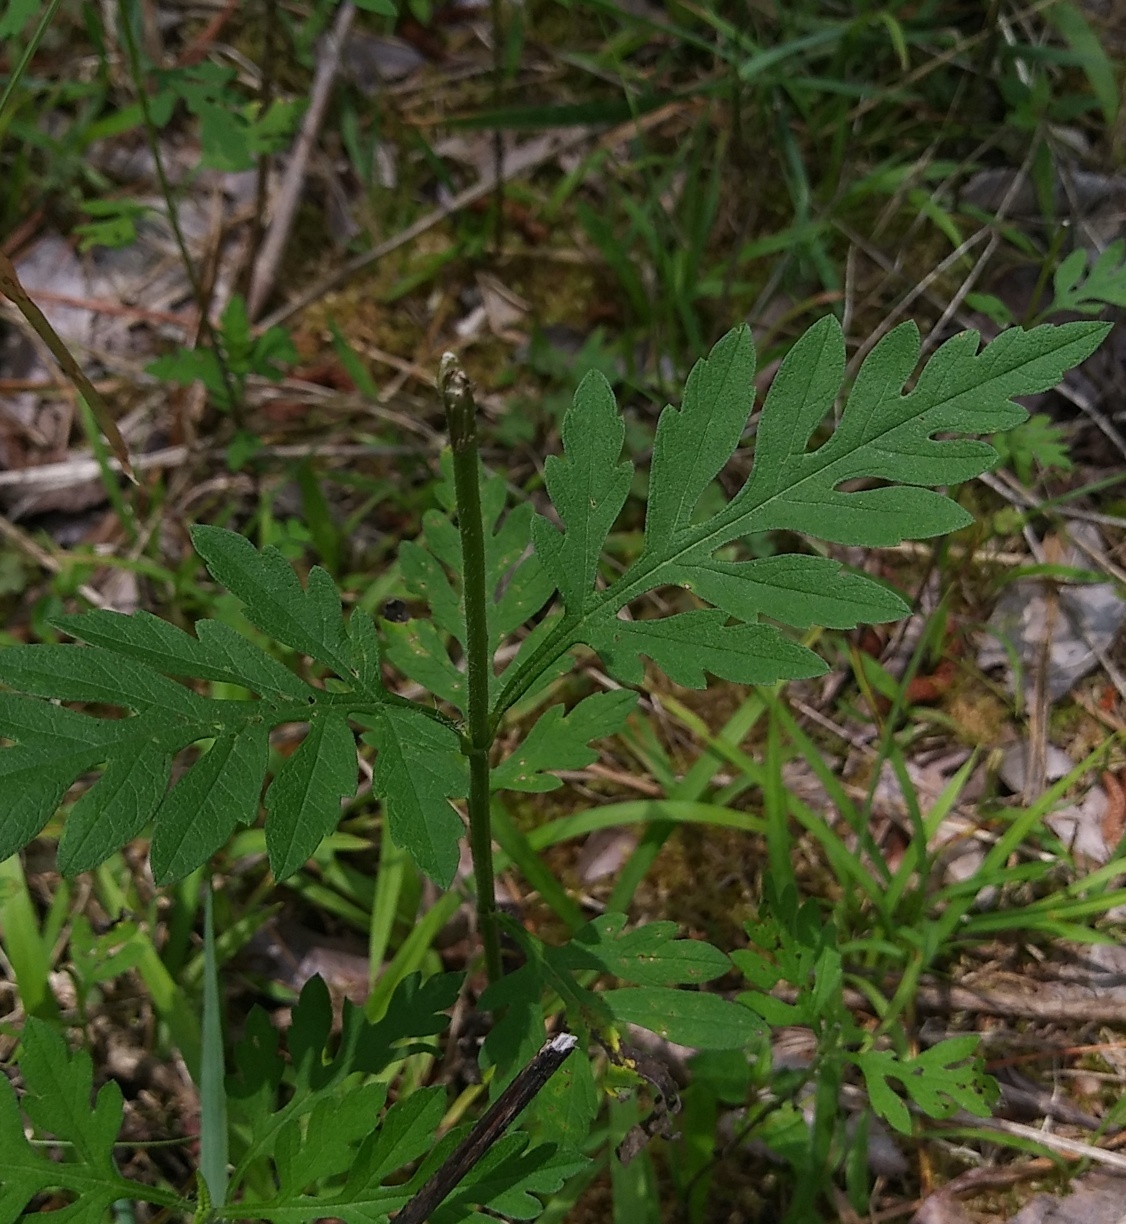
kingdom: Plantae
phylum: Tracheophyta
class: Magnoliopsida
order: Asterales
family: Asteraceae
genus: Ambrosia
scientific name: Ambrosia artemisiifolia
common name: Annual ragweed
